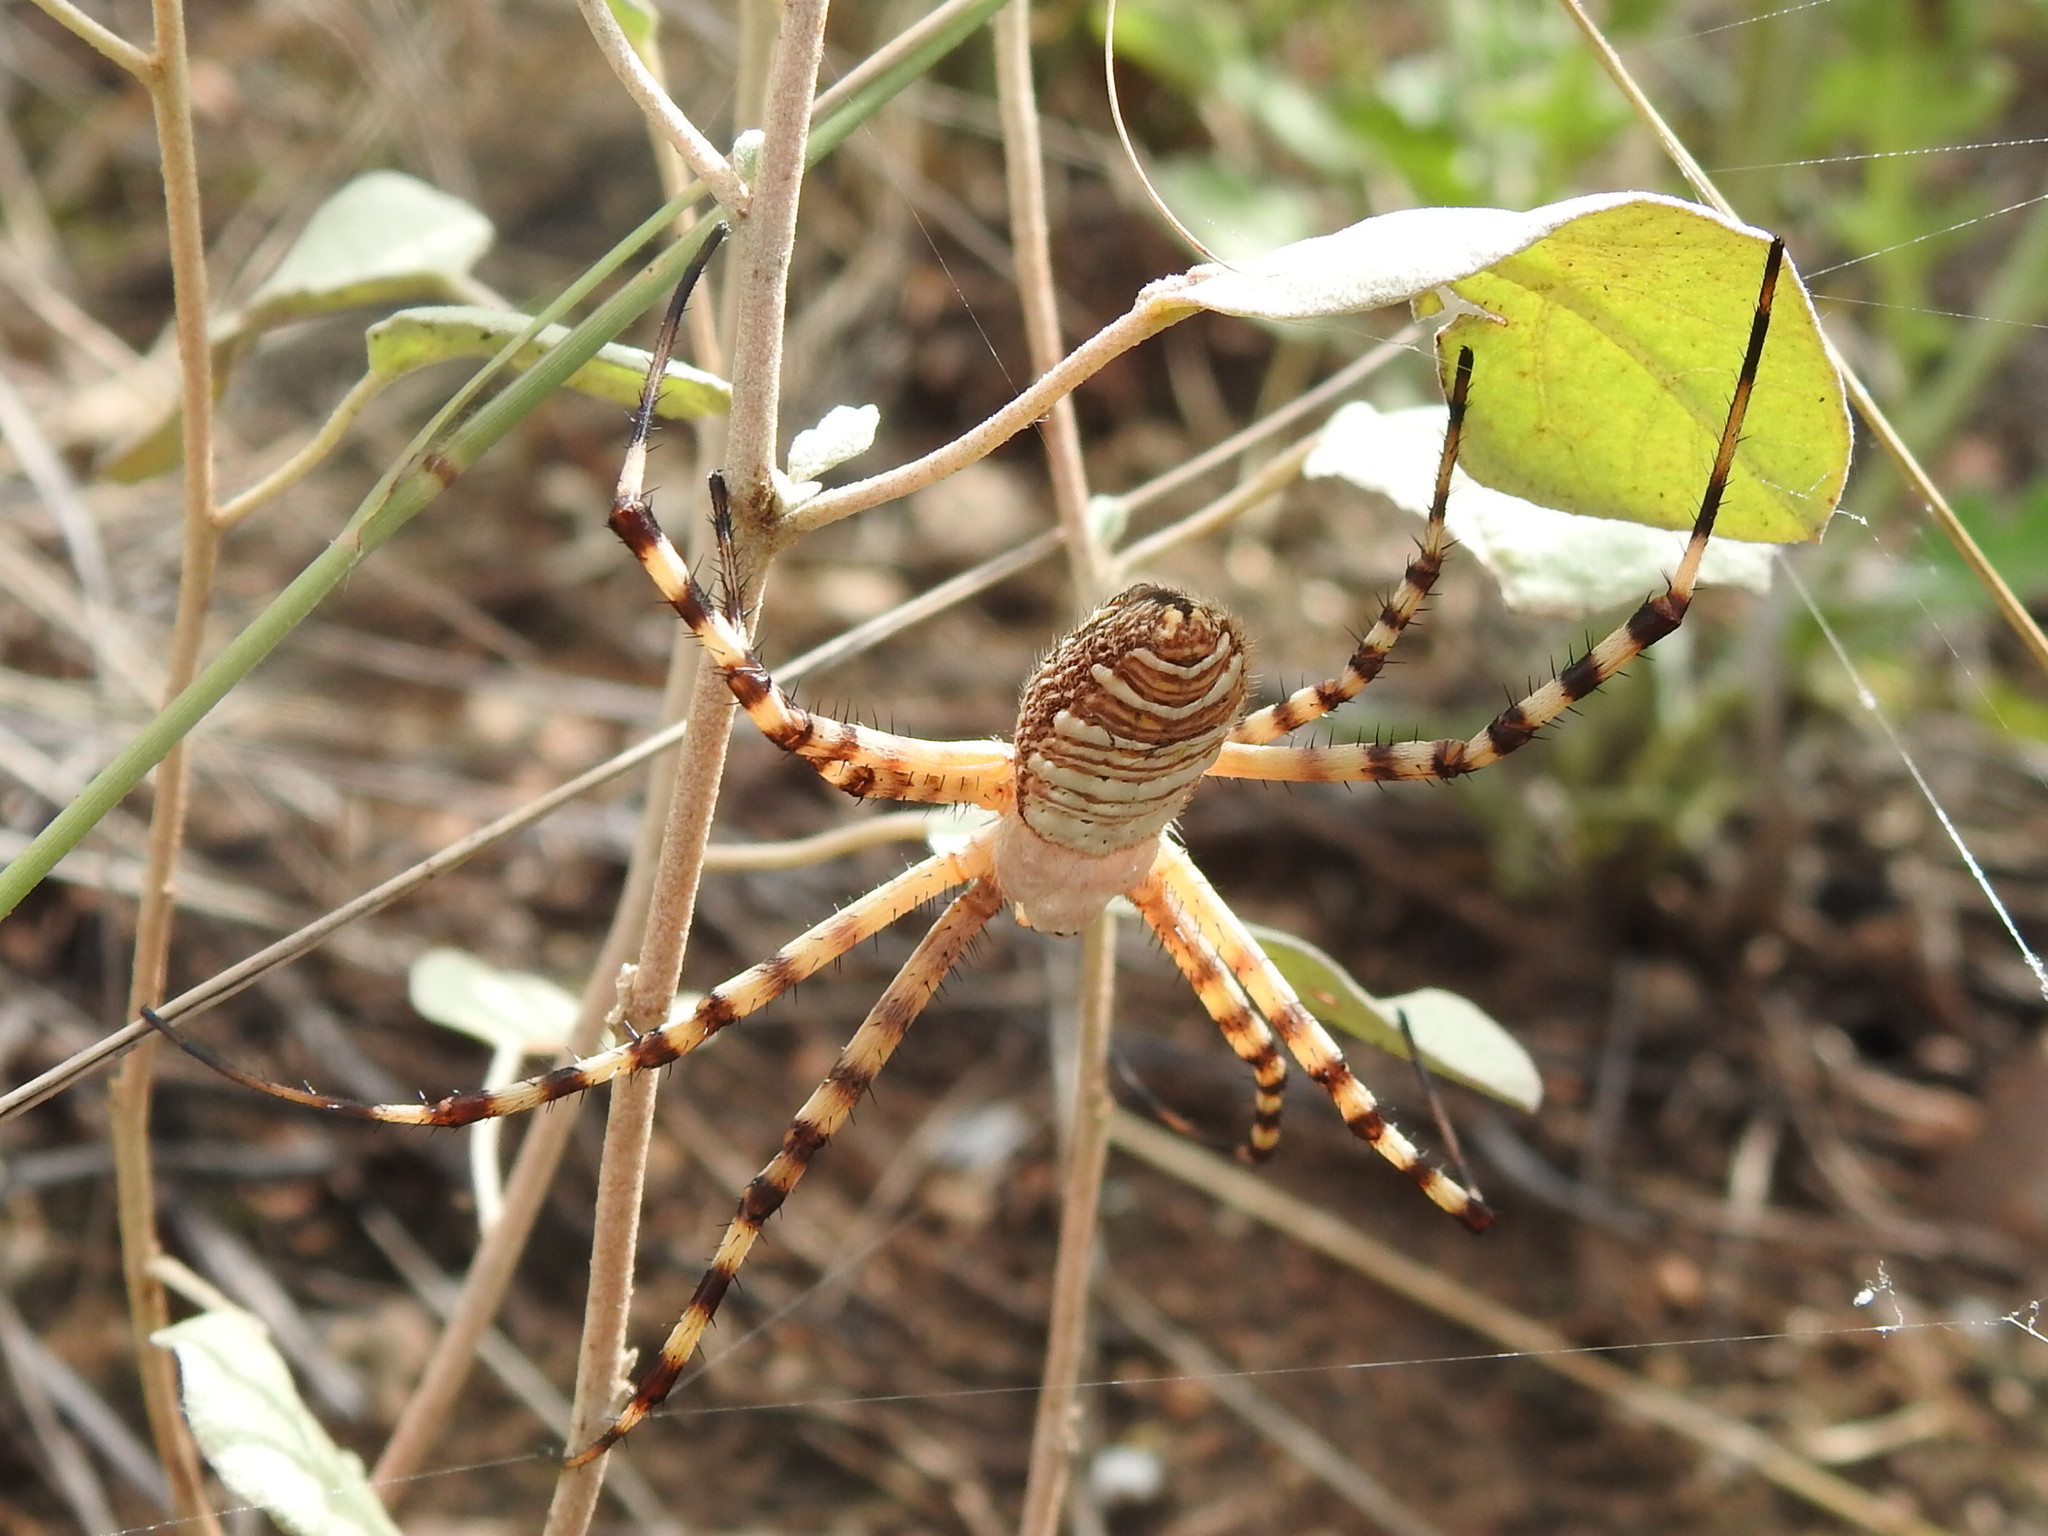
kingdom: Animalia
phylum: Arthropoda
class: Arachnida
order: Araneae
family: Araneidae
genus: Argiope
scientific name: Argiope trifasciata
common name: Banded garden spider
